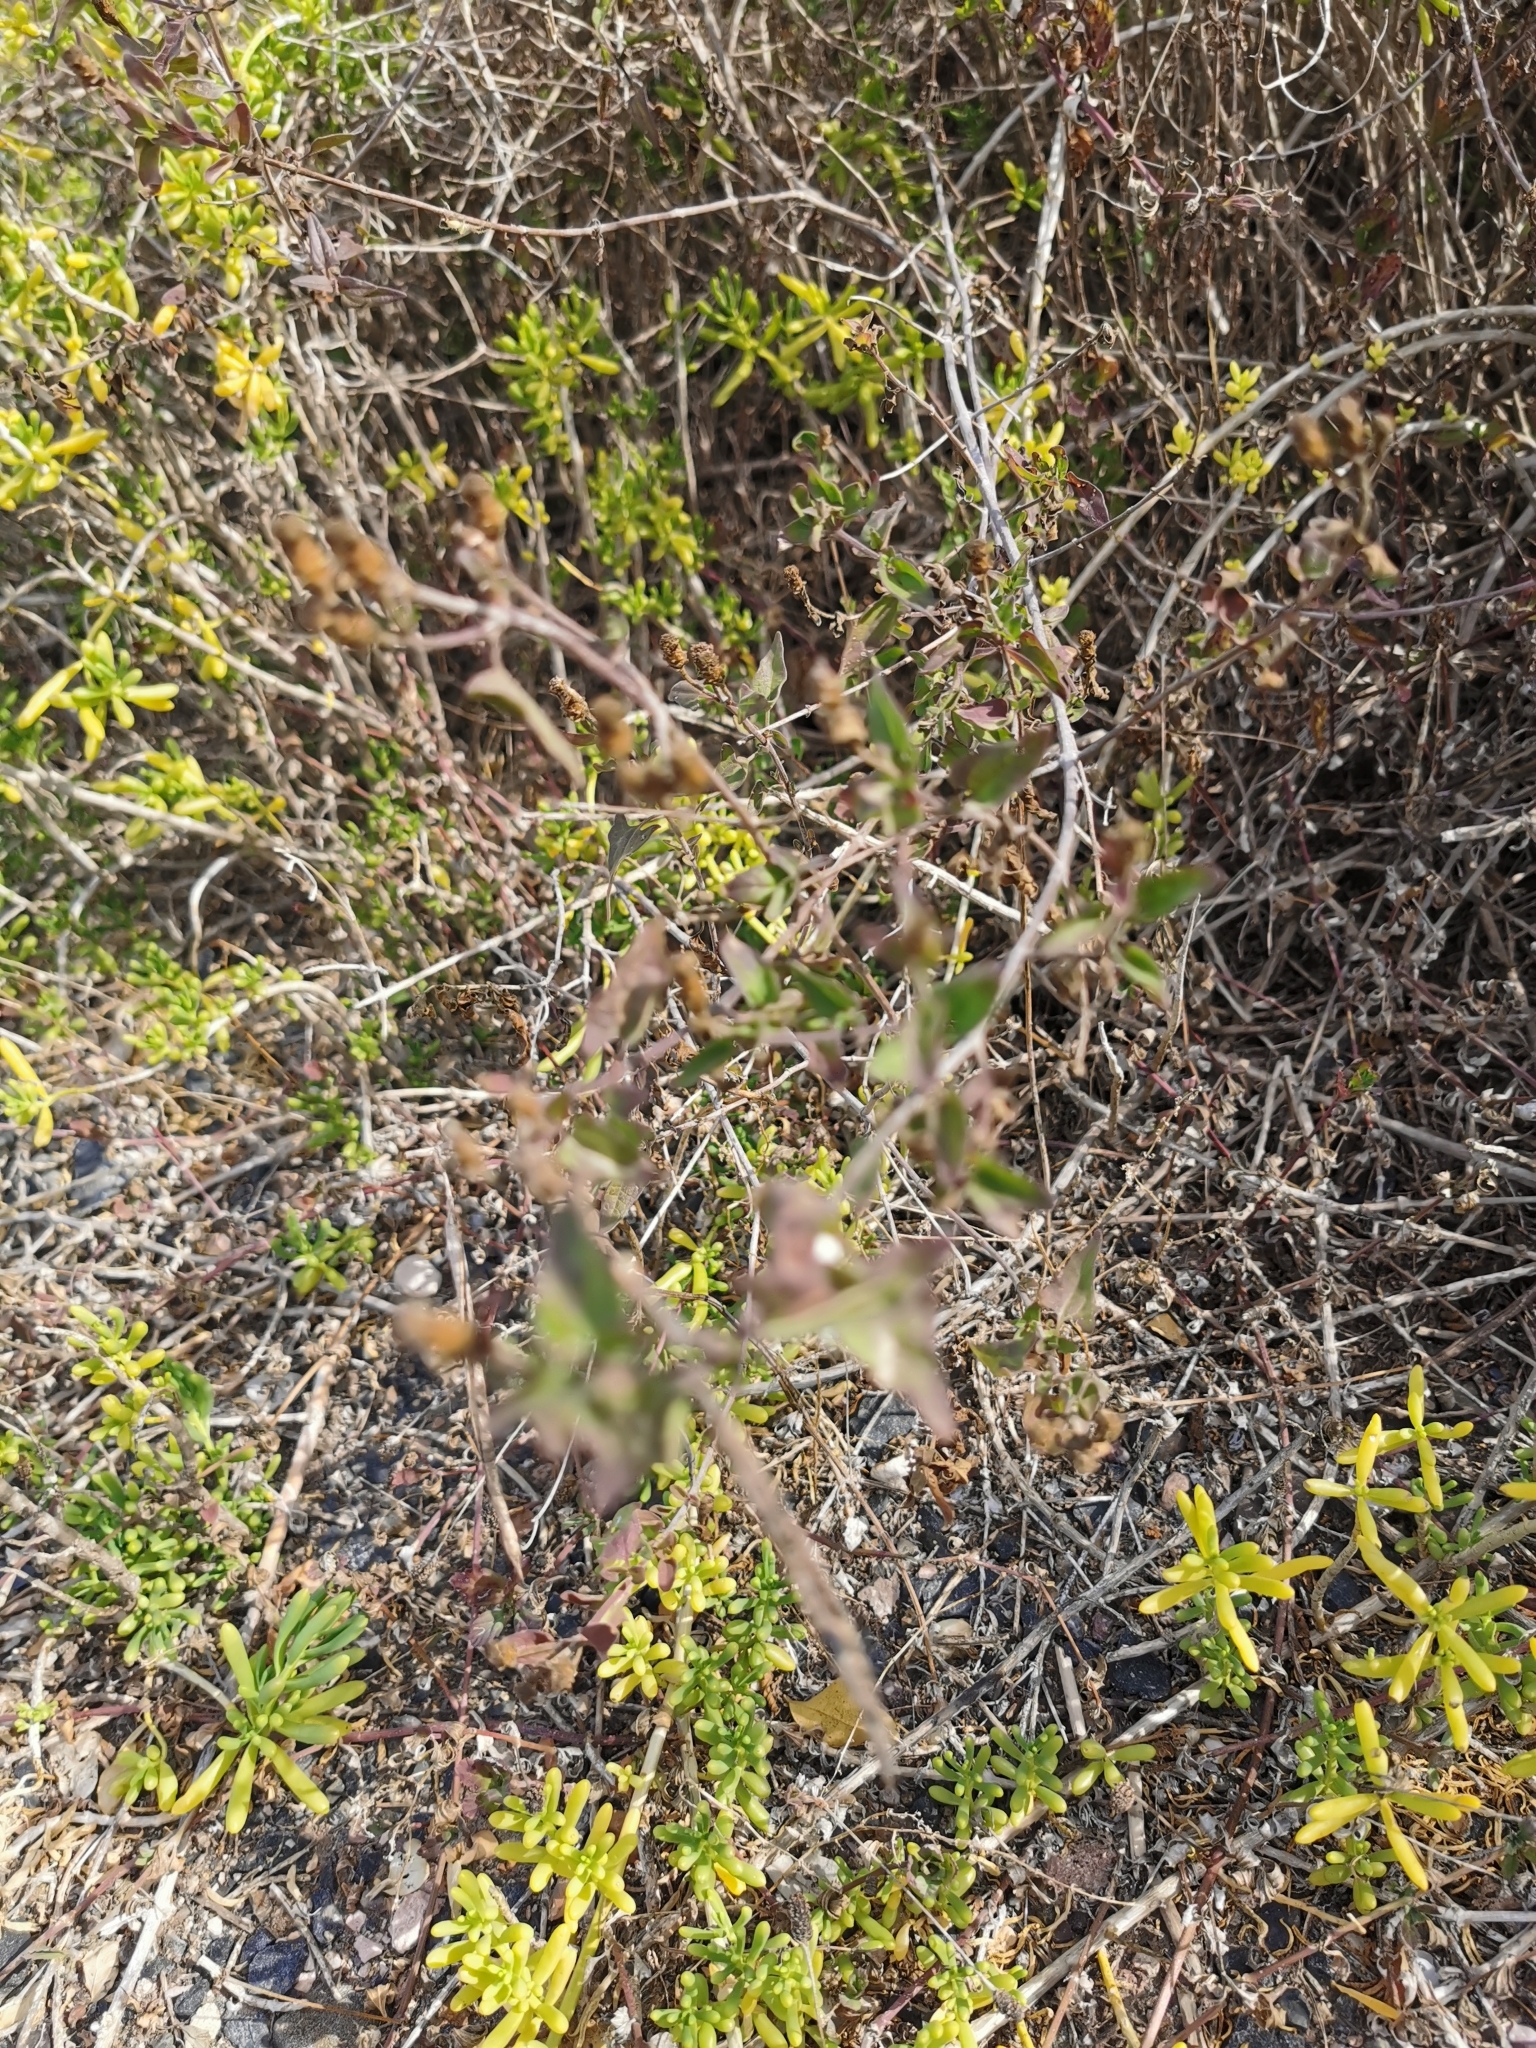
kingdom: Plantae
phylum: Tracheophyta
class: Magnoliopsida
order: Asterales
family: Asteraceae
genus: Chromolaena
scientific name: Chromolaena sagittata
